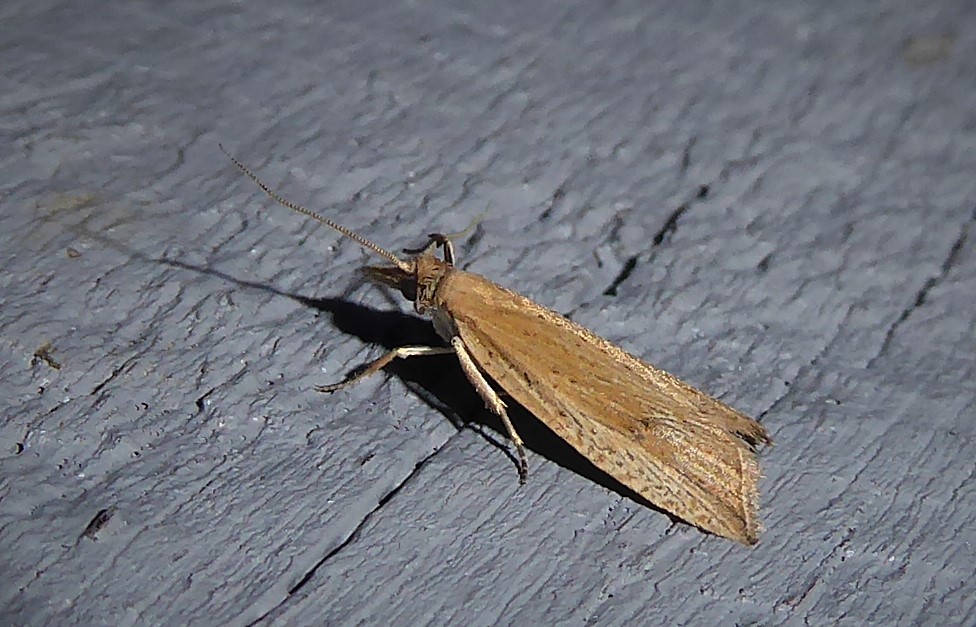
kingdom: Animalia
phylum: Arthropoda
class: Insecta
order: Lepidoptera
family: Tortricidae
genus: Bactra
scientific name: Bactra noteraula
